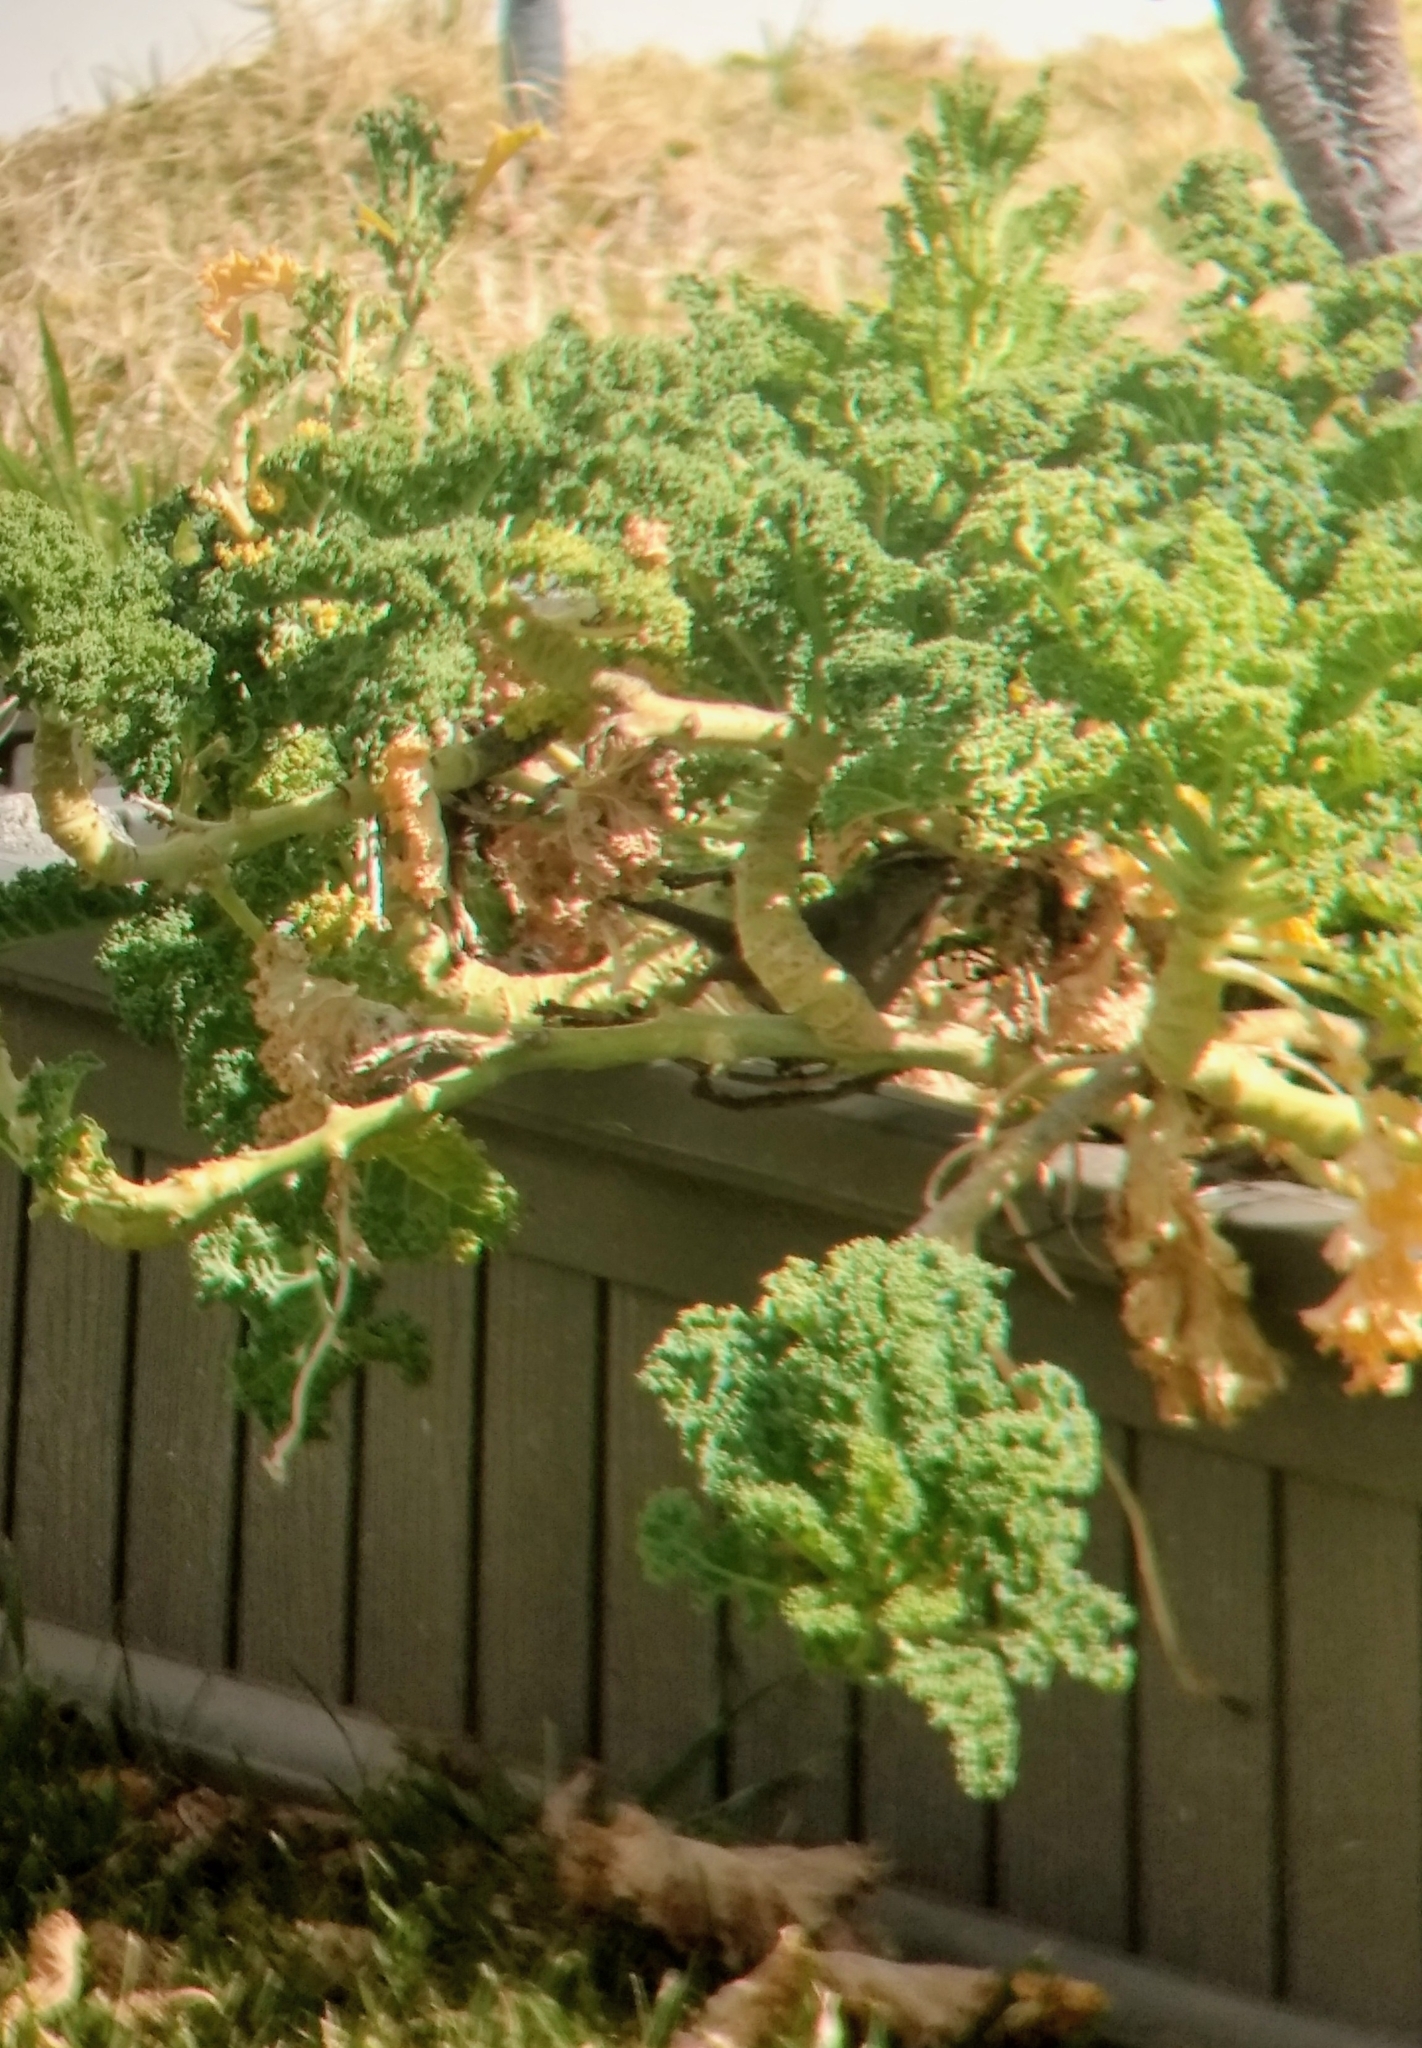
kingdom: Animalia
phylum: Chordata
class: Aves
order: Passeriformes
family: Troglodytidae
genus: Thryomanes
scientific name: Thryomanes bewickii
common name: Bewick's wren
